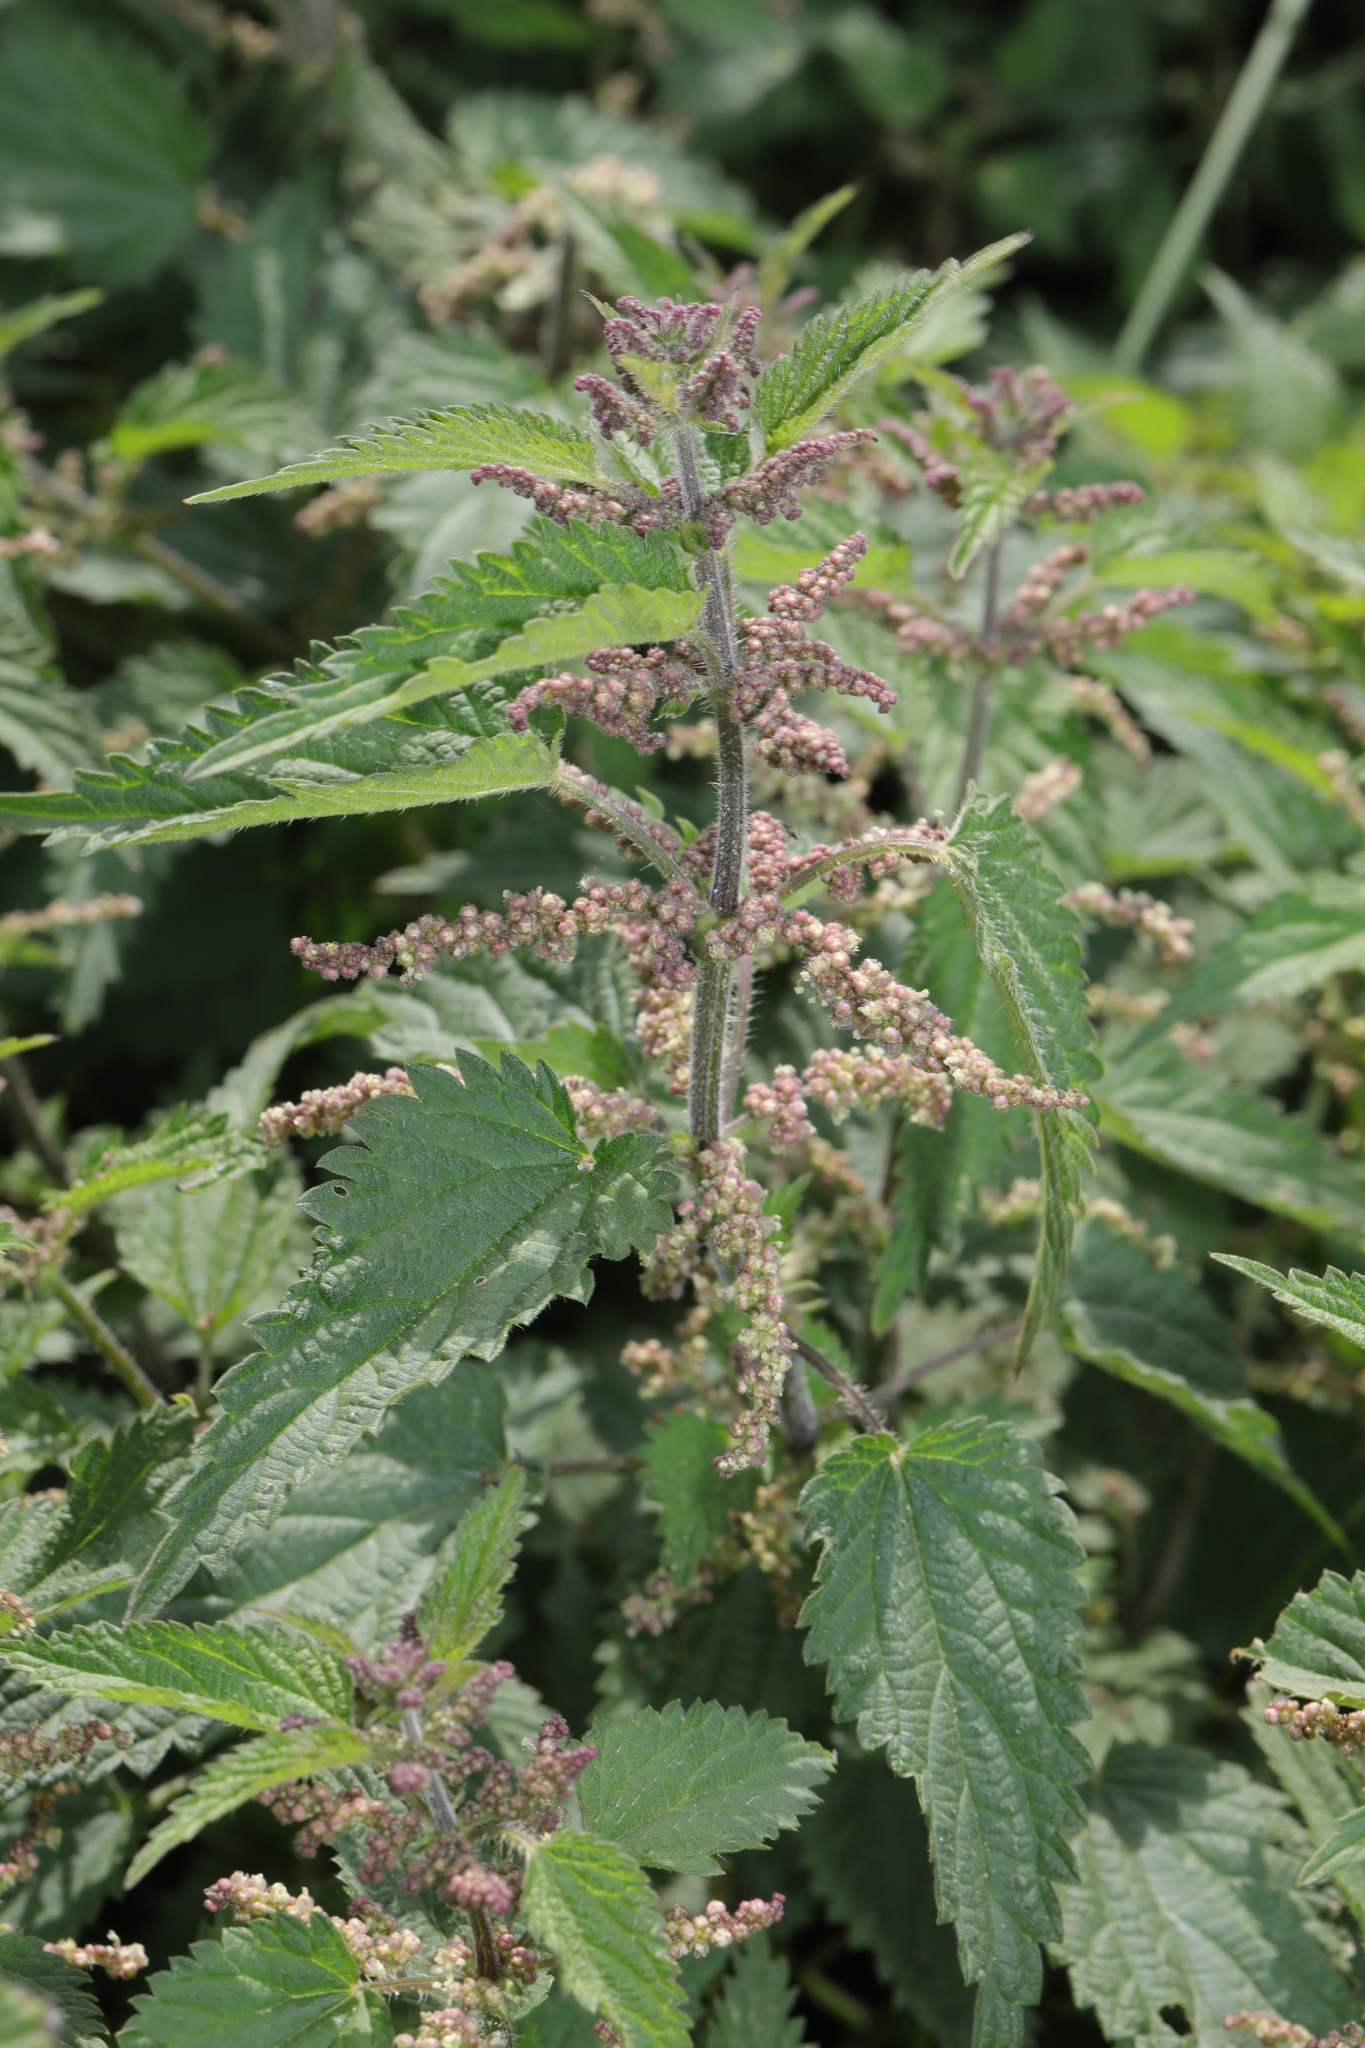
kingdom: Plantae
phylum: Tracheophyta
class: Magnoliopsida
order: Rosales
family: Urticaceae
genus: Urtica
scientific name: Urtica dioica
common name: Common nettle
